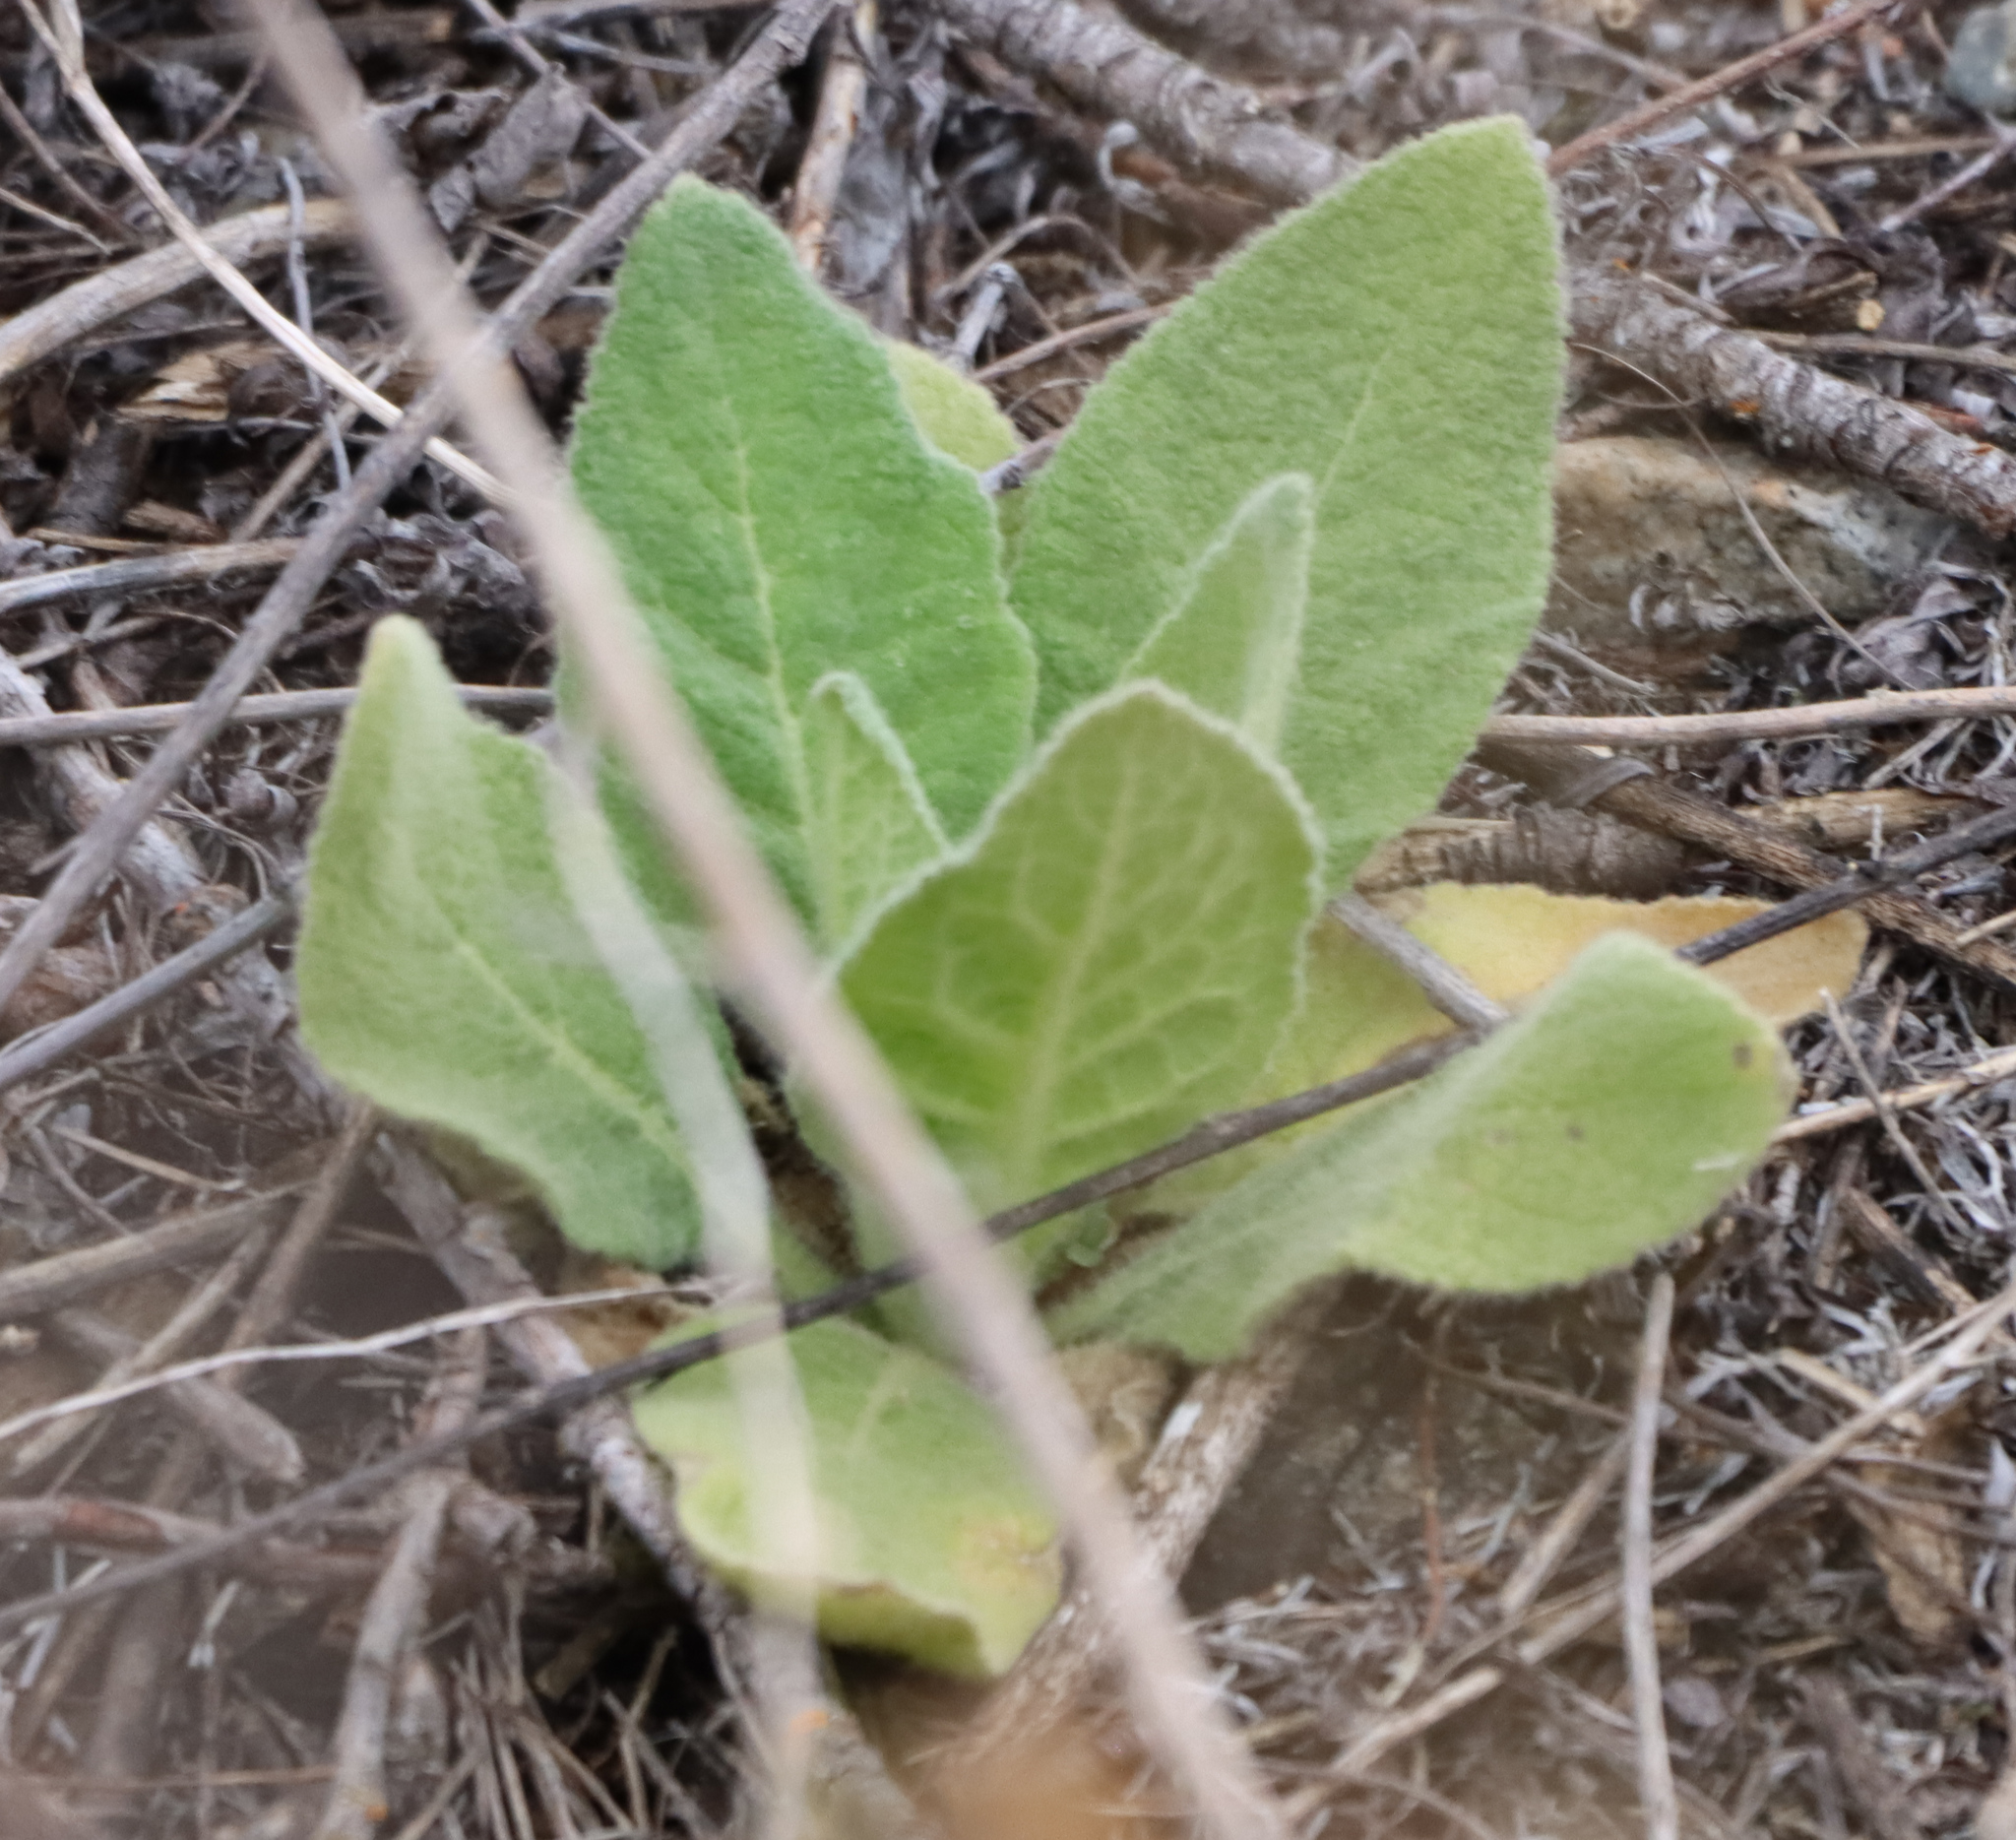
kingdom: Plantae
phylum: Tracheophyta
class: Magnoliopsida
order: Lamiales
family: Scrophulariaceae
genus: Verbascum
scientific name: Verbascum thapsus
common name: Common mullein
